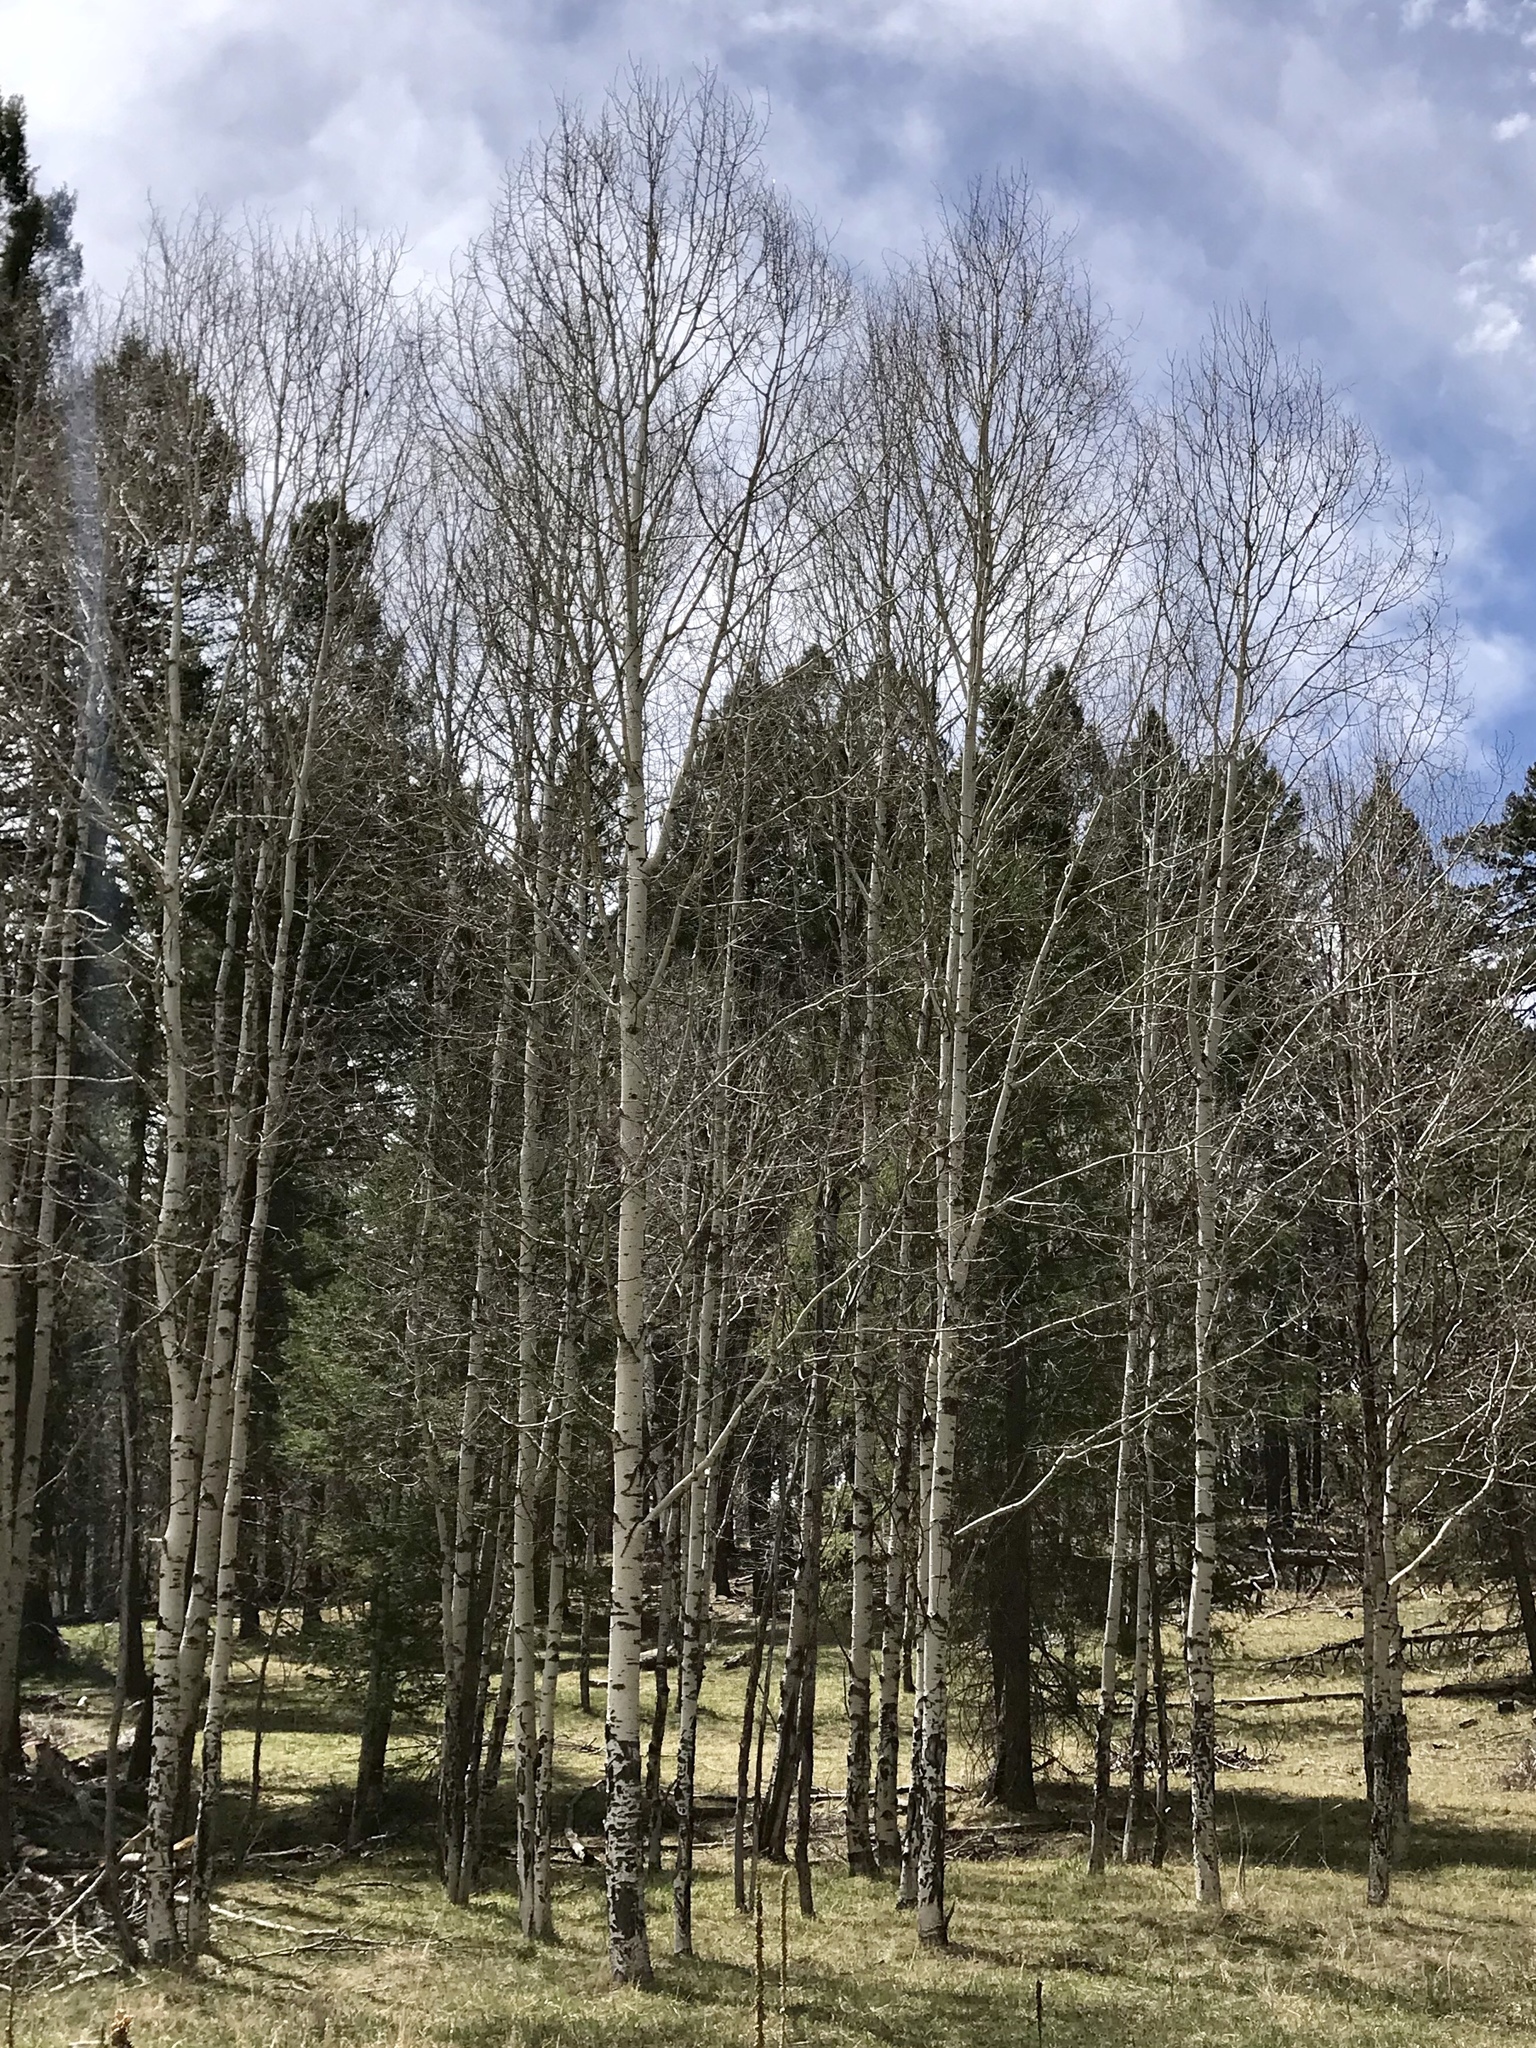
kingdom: Plantae
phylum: Tracheophyta
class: Magnoliopsida
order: Malpighiales
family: Salicaceae
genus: Populus
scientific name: Populus tremuloides
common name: Quaking aspen
